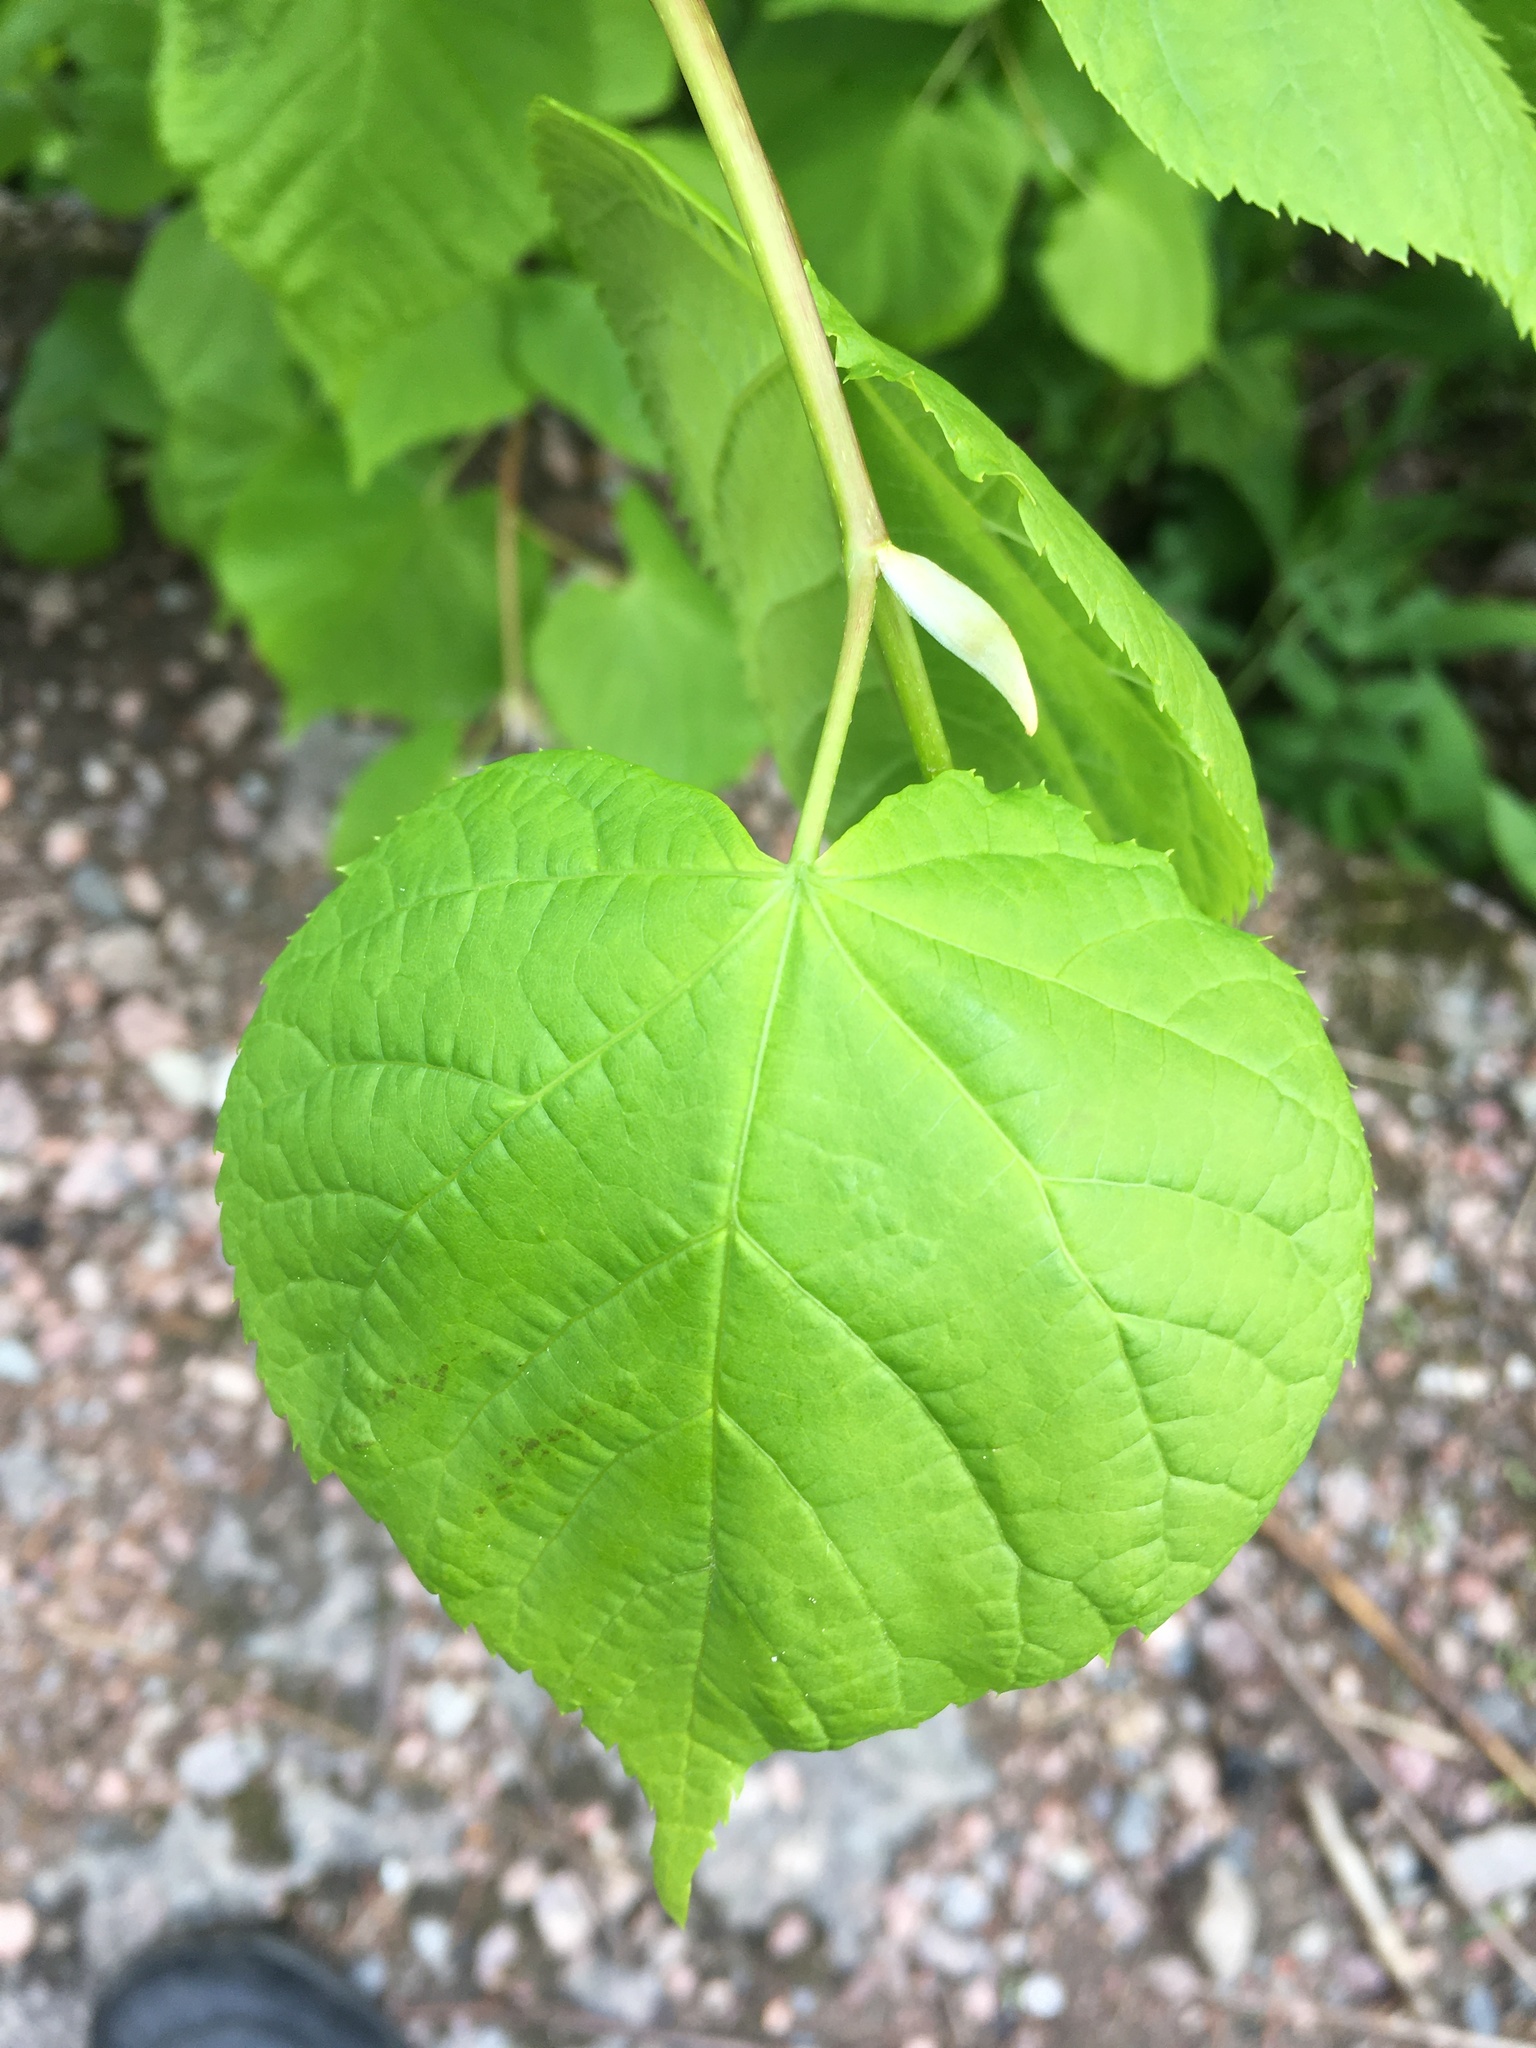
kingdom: Plantae
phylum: Tracheophyta
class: Magnoliopsida
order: Malvales
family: Malvaceae
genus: Tilia
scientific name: Tilia cordata
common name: Small-leaved lime
